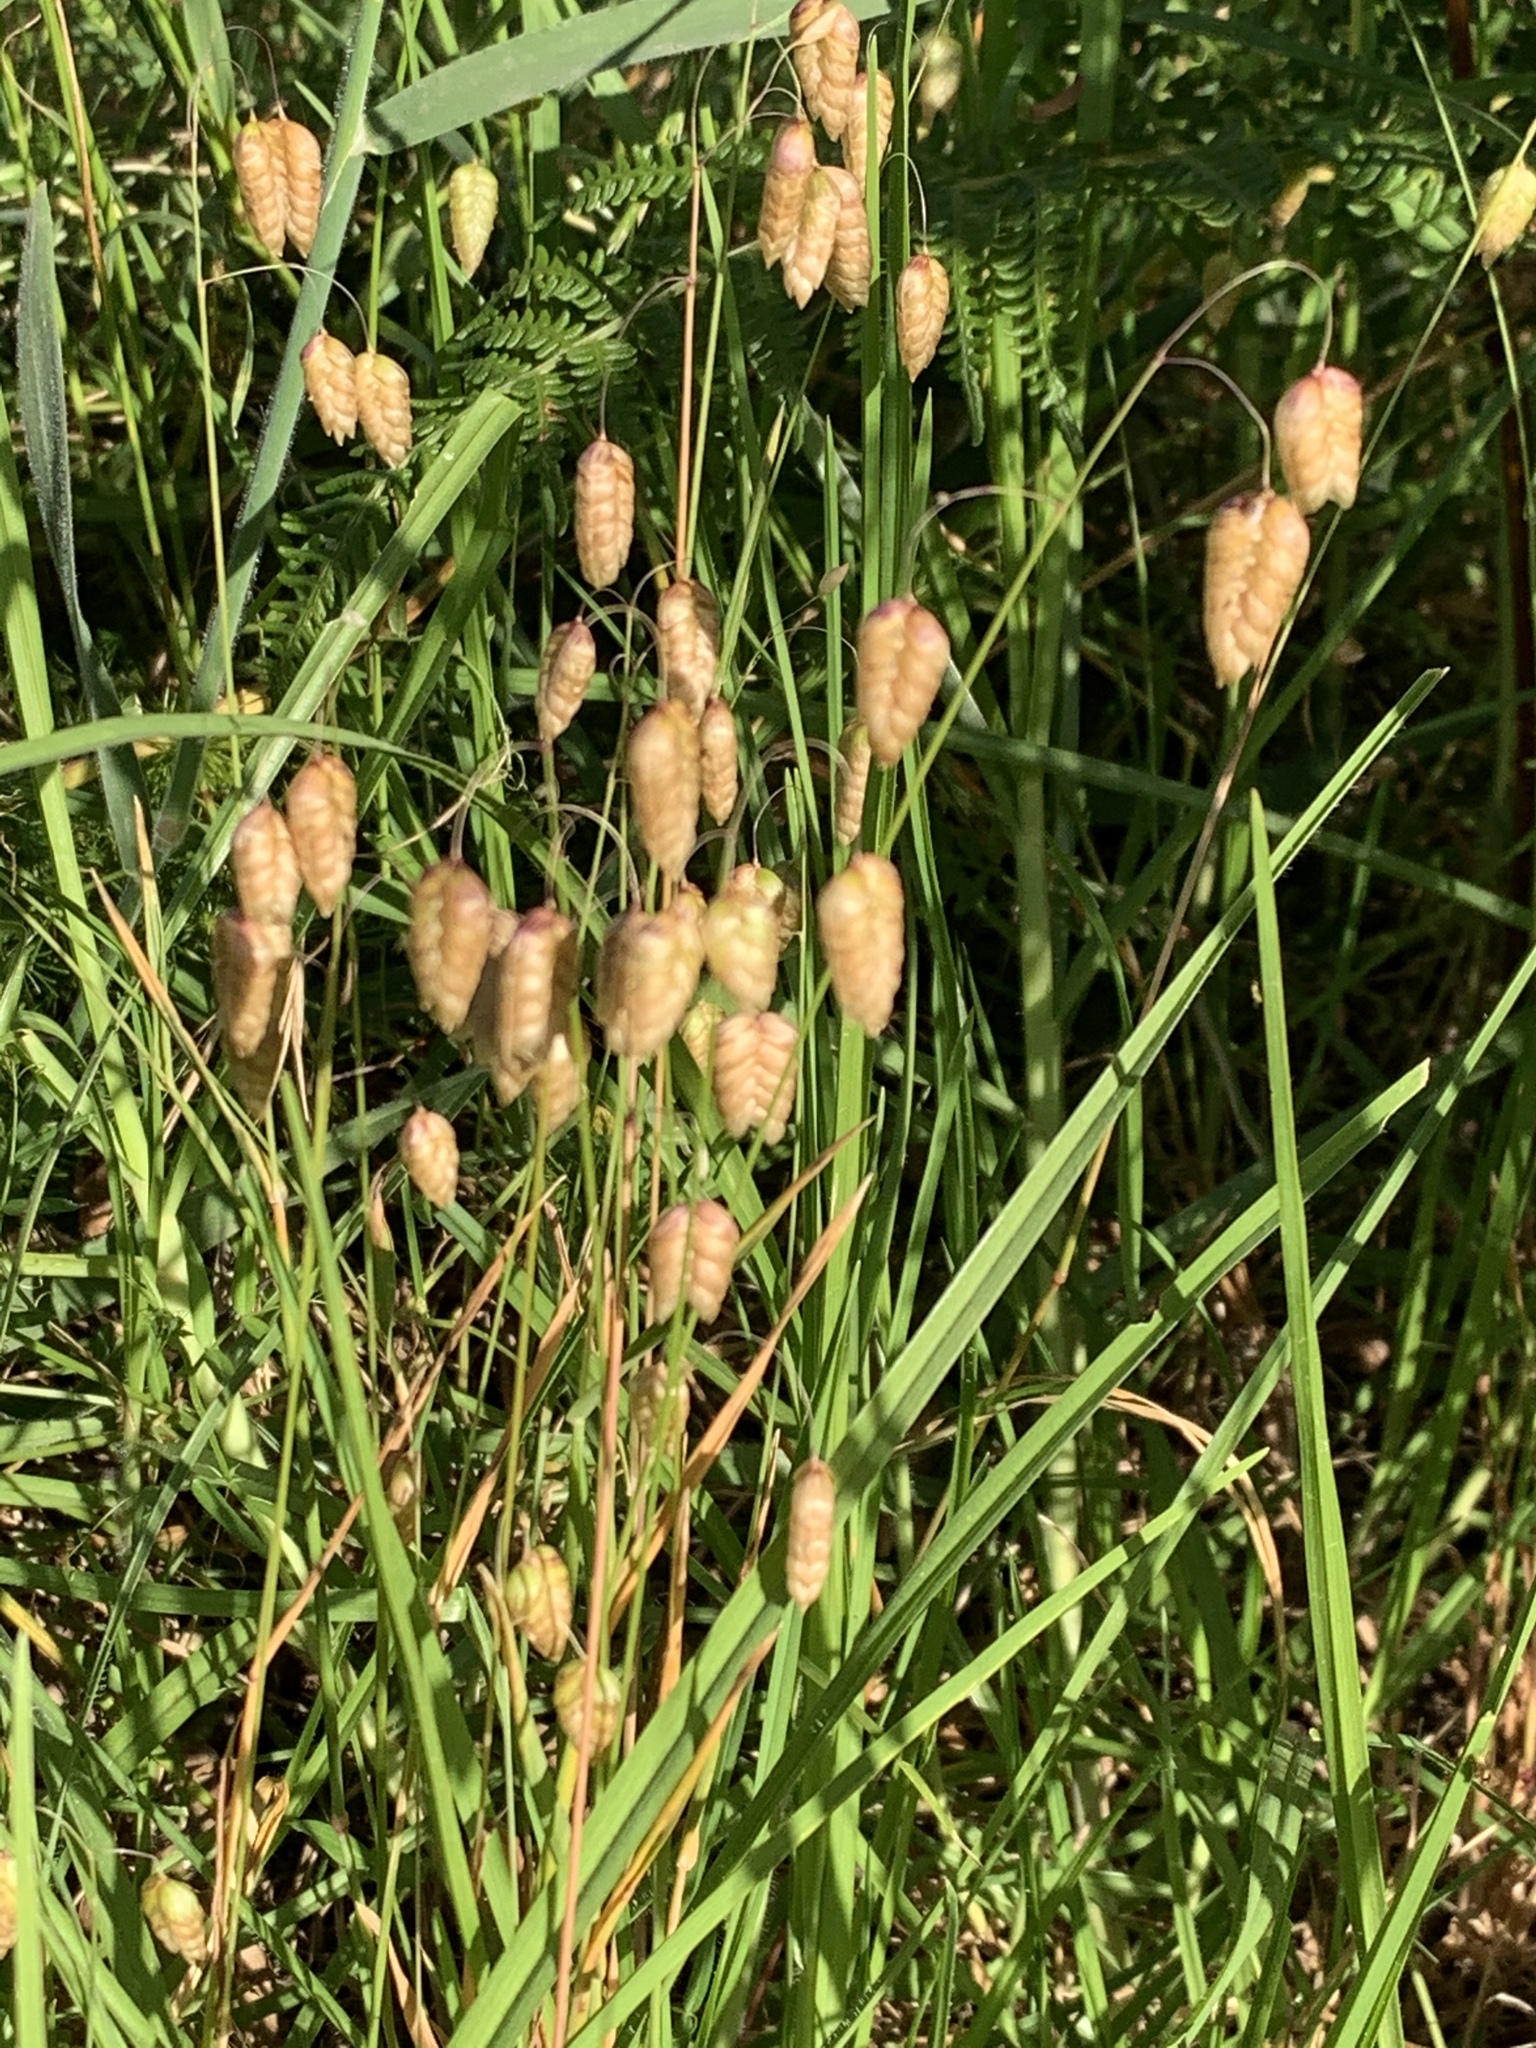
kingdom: Plantae
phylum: Tracheophyta
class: Liliopsida
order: Poales
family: Poaceae
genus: Briza
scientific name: Briza maxima
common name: Big quakinggrass
